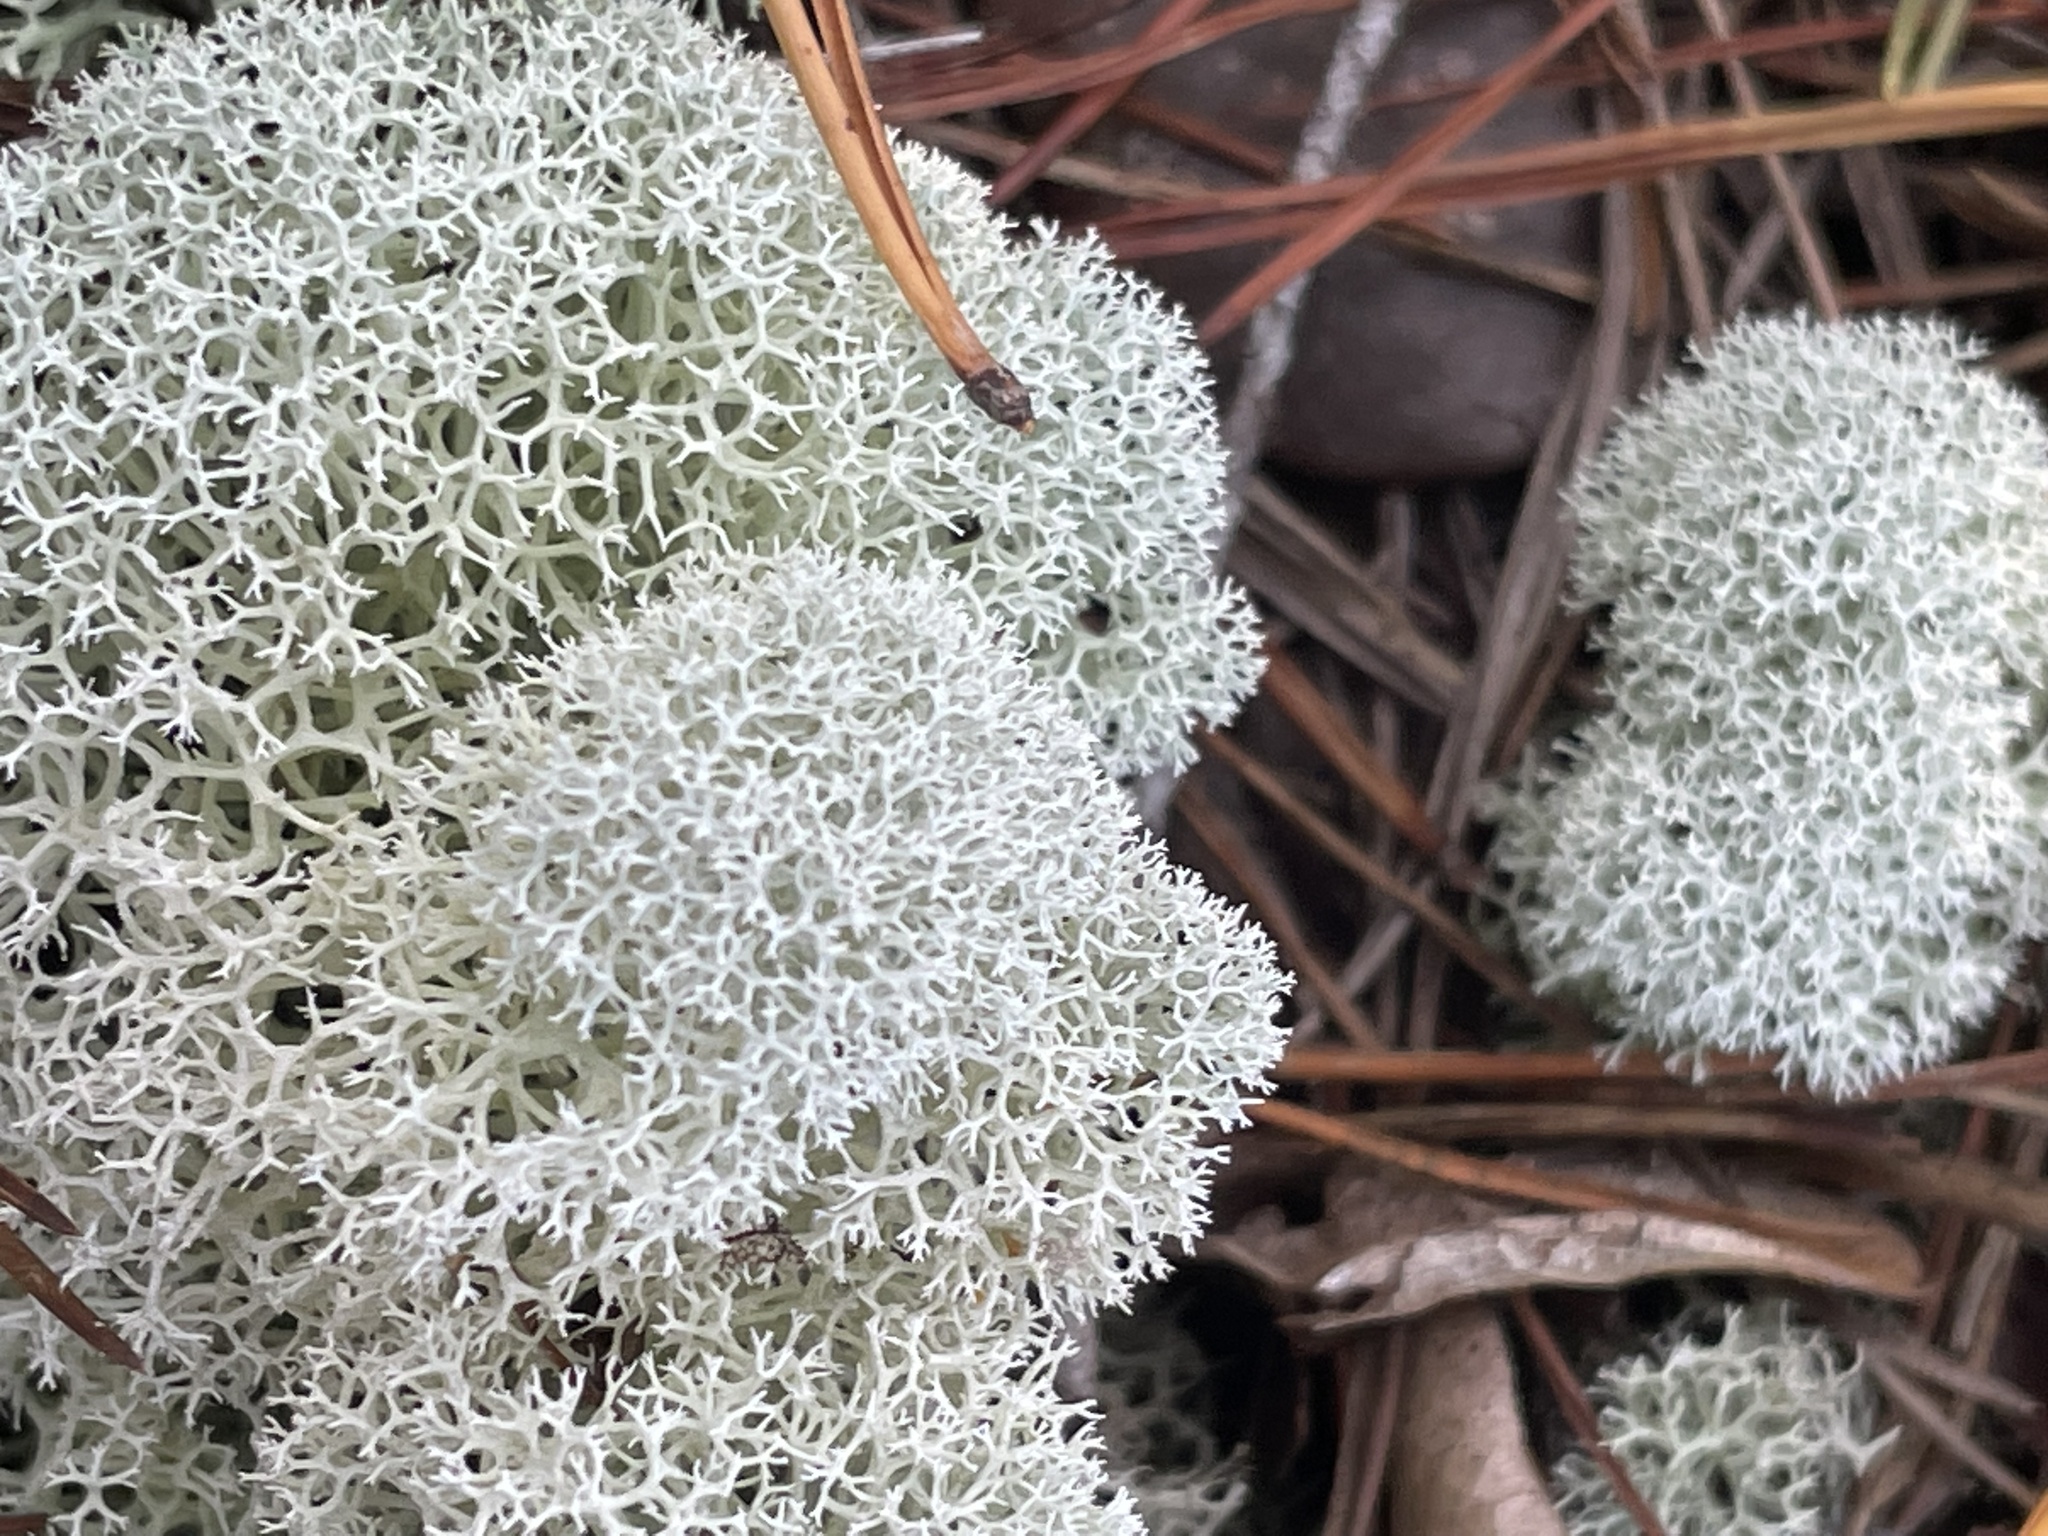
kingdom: Fungi
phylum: Ascomycota
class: Lecanoromycetes
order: Lecanorales
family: Cladoniaceae
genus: Cladonia
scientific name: Cladonia evansii
